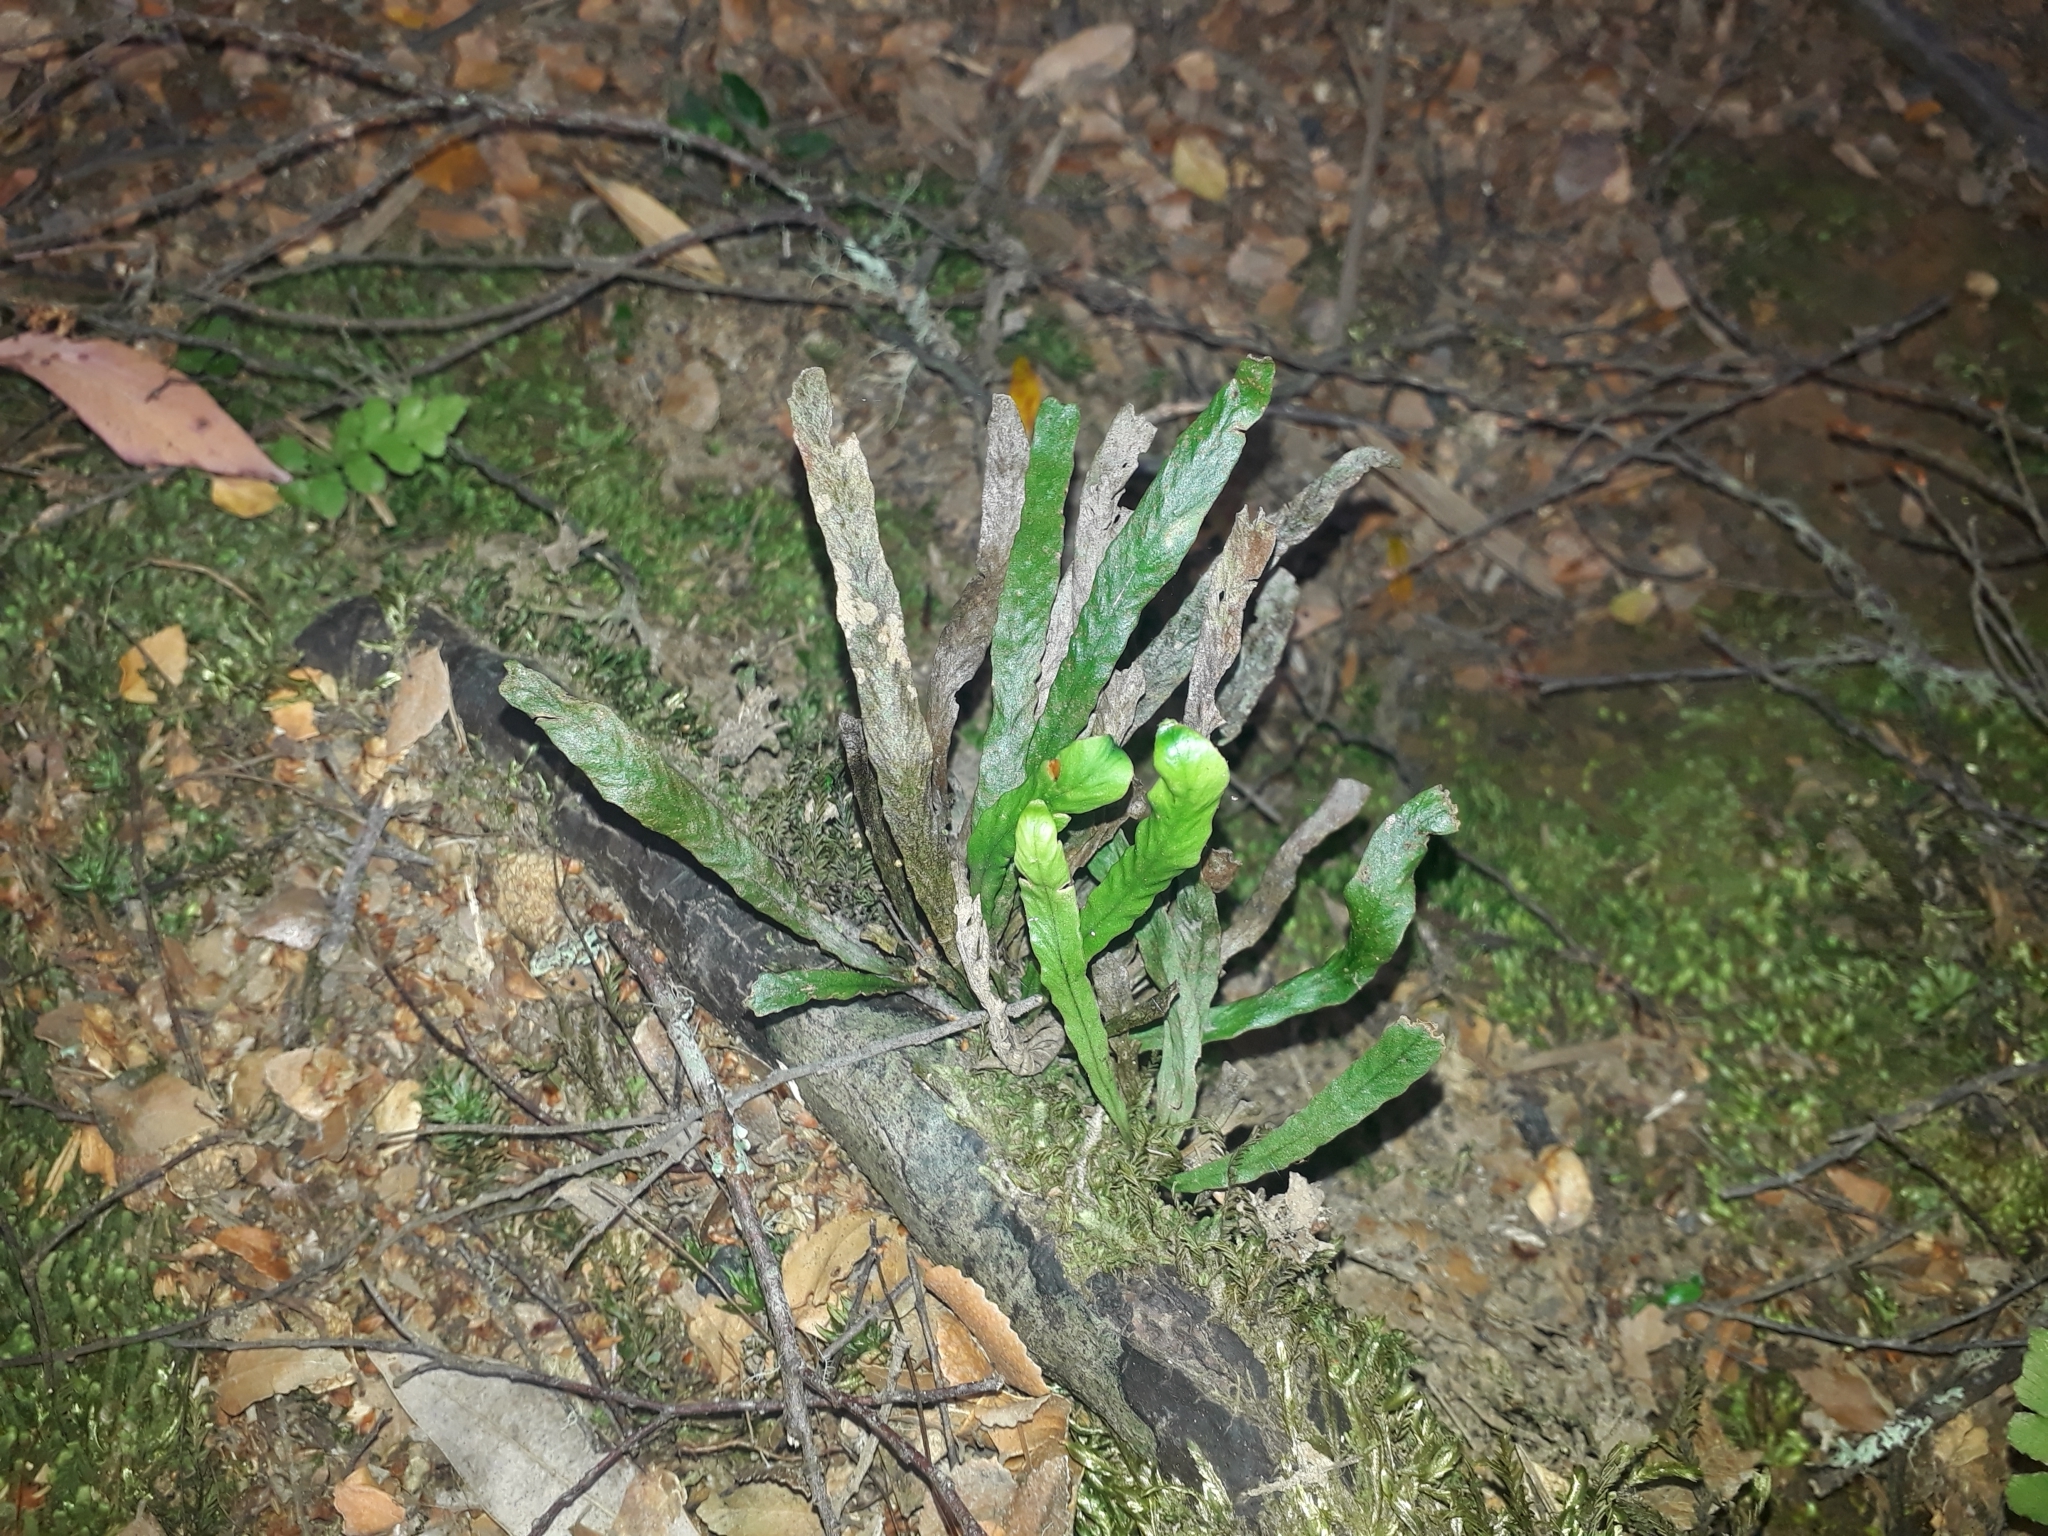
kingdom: Plantae
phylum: Tracheophyta
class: Polypodiopsida
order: Polypodiales
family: Polypodiaceae
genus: Notogrammitis
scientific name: Notogrammitis billardierei
